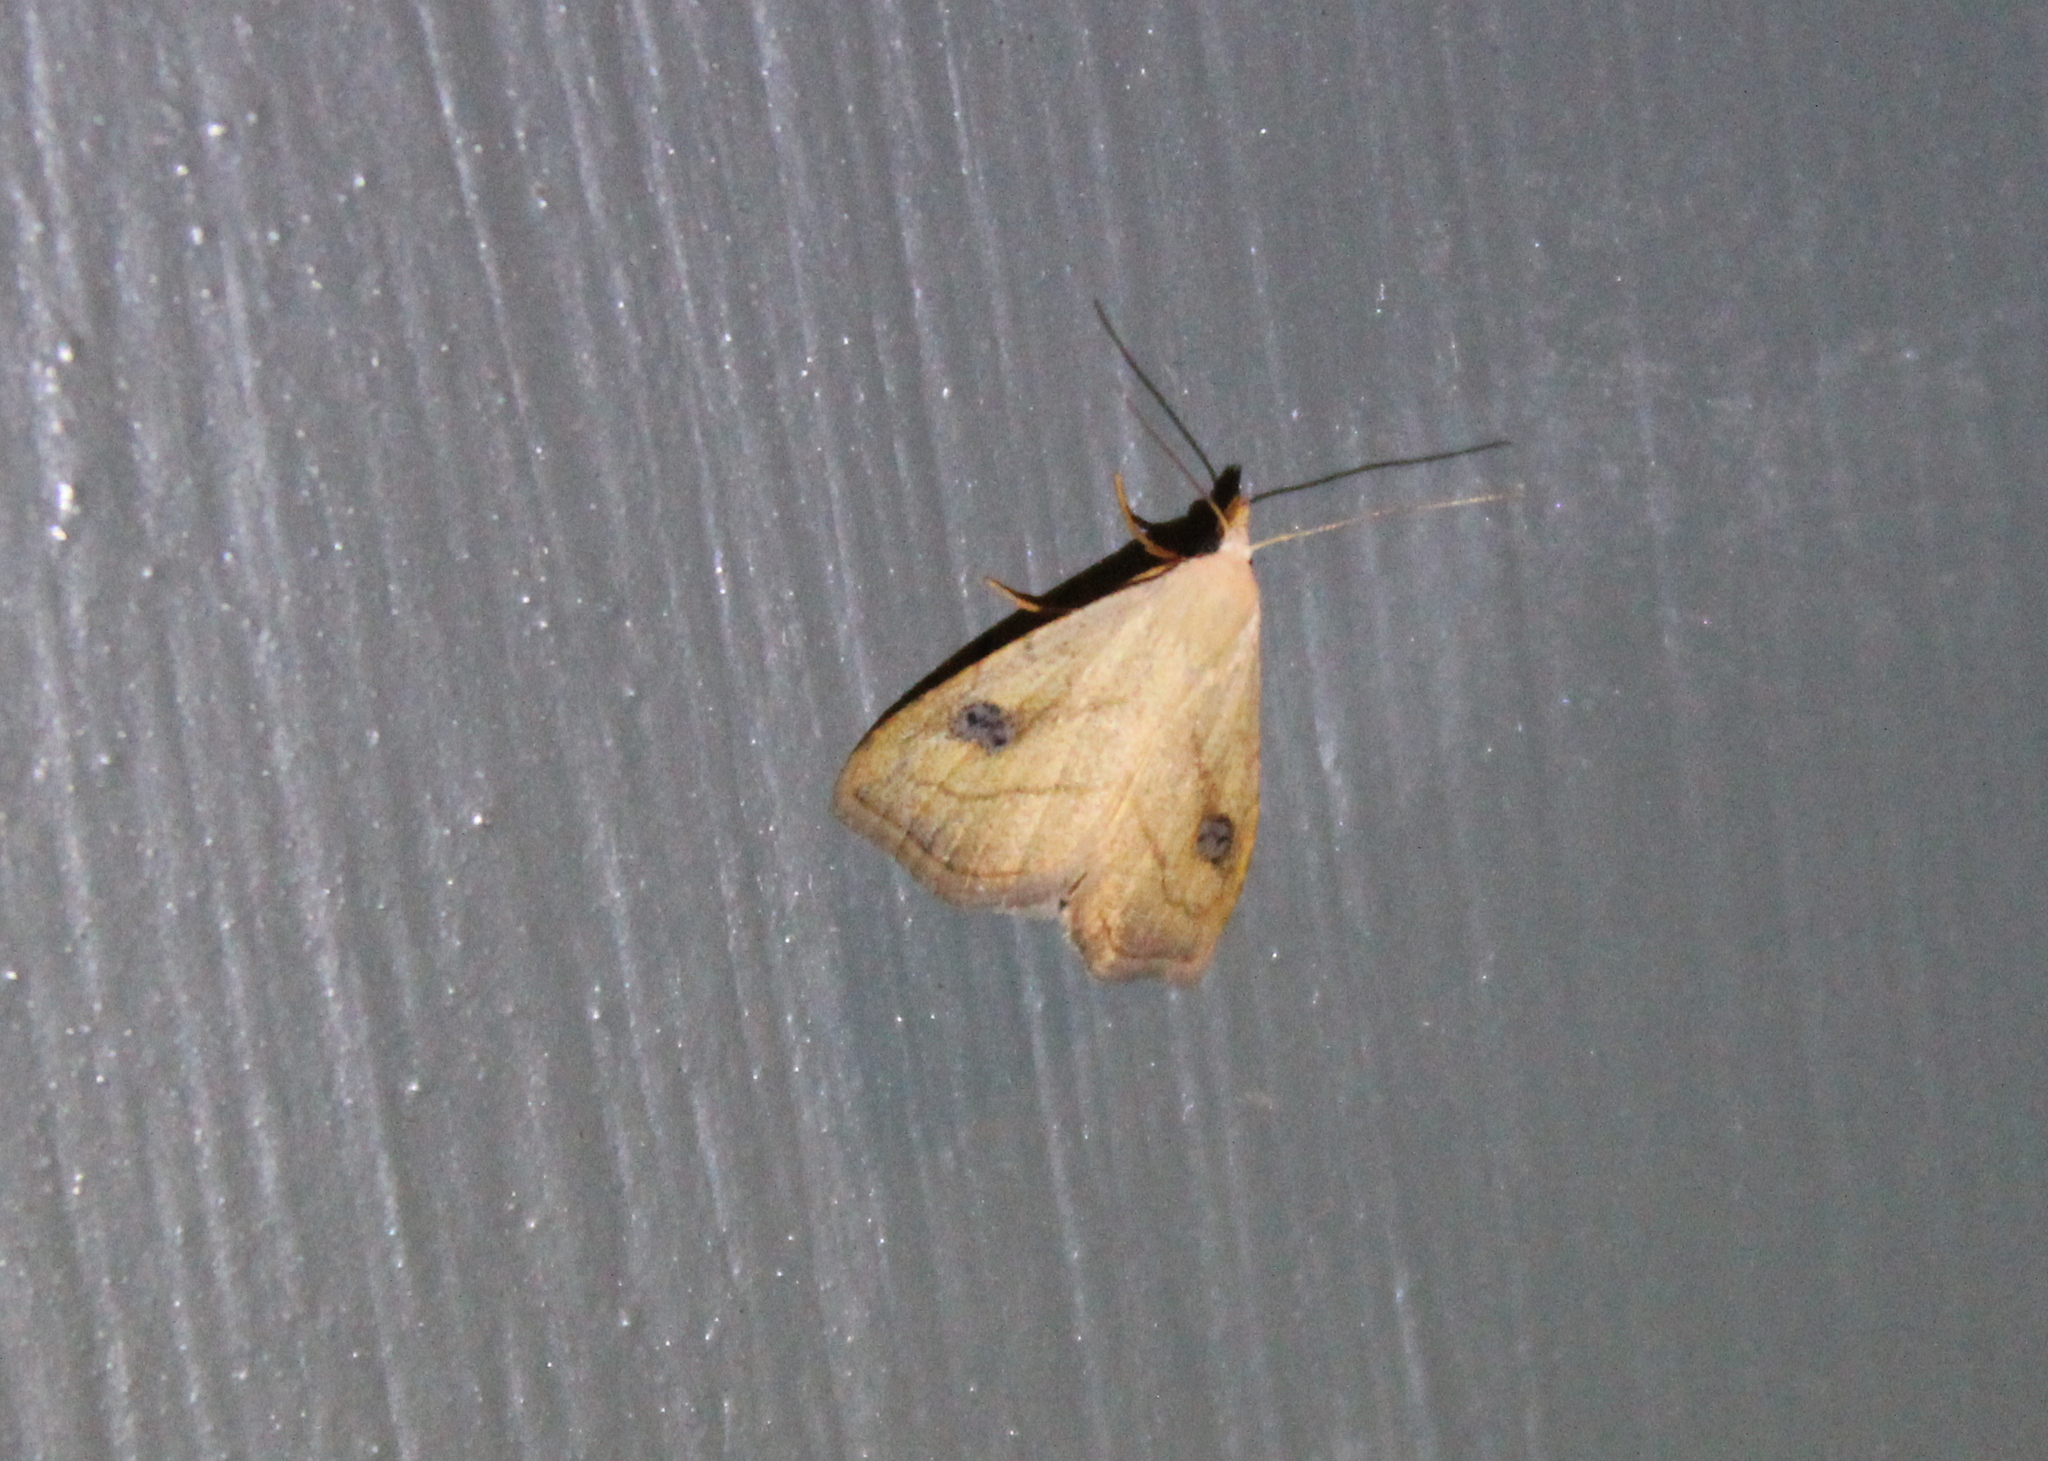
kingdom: Animalia
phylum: Arthropoda
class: Insecta
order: Lepidoptera
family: Erebidae
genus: Rivula
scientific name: Rivula propinqualis
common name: Spotted grass moth
